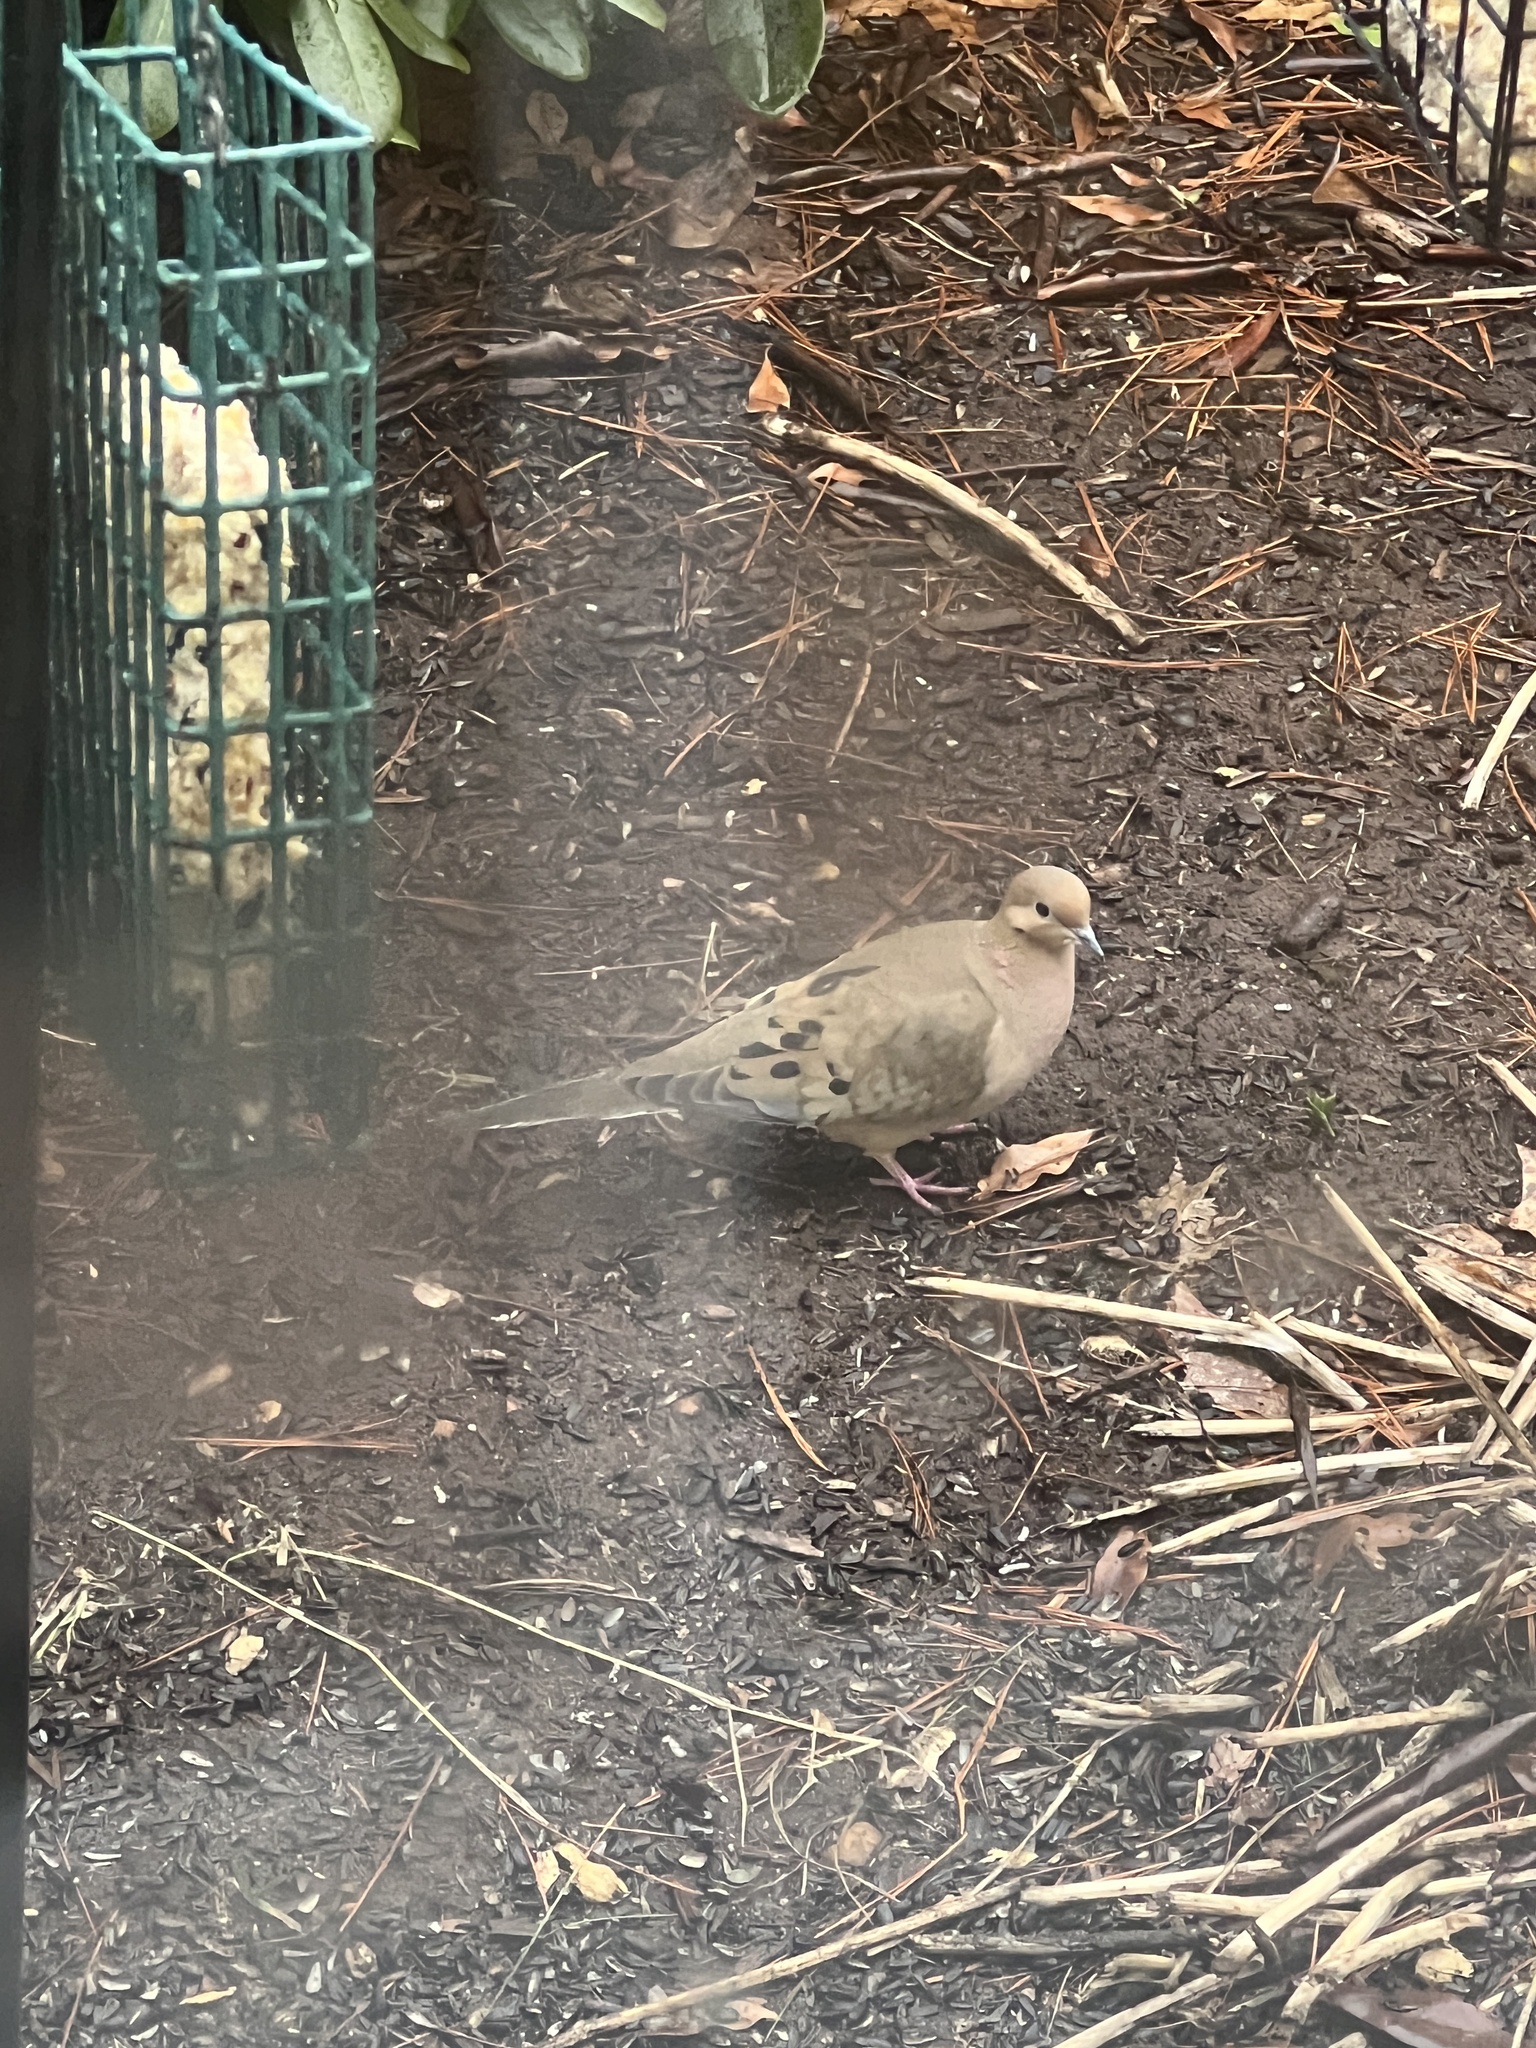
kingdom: Animalia
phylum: Chordata
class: Aves
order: Columbiformes
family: Columbidae
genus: Zenaida
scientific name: Zenaida macroura
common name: Mourning dove
